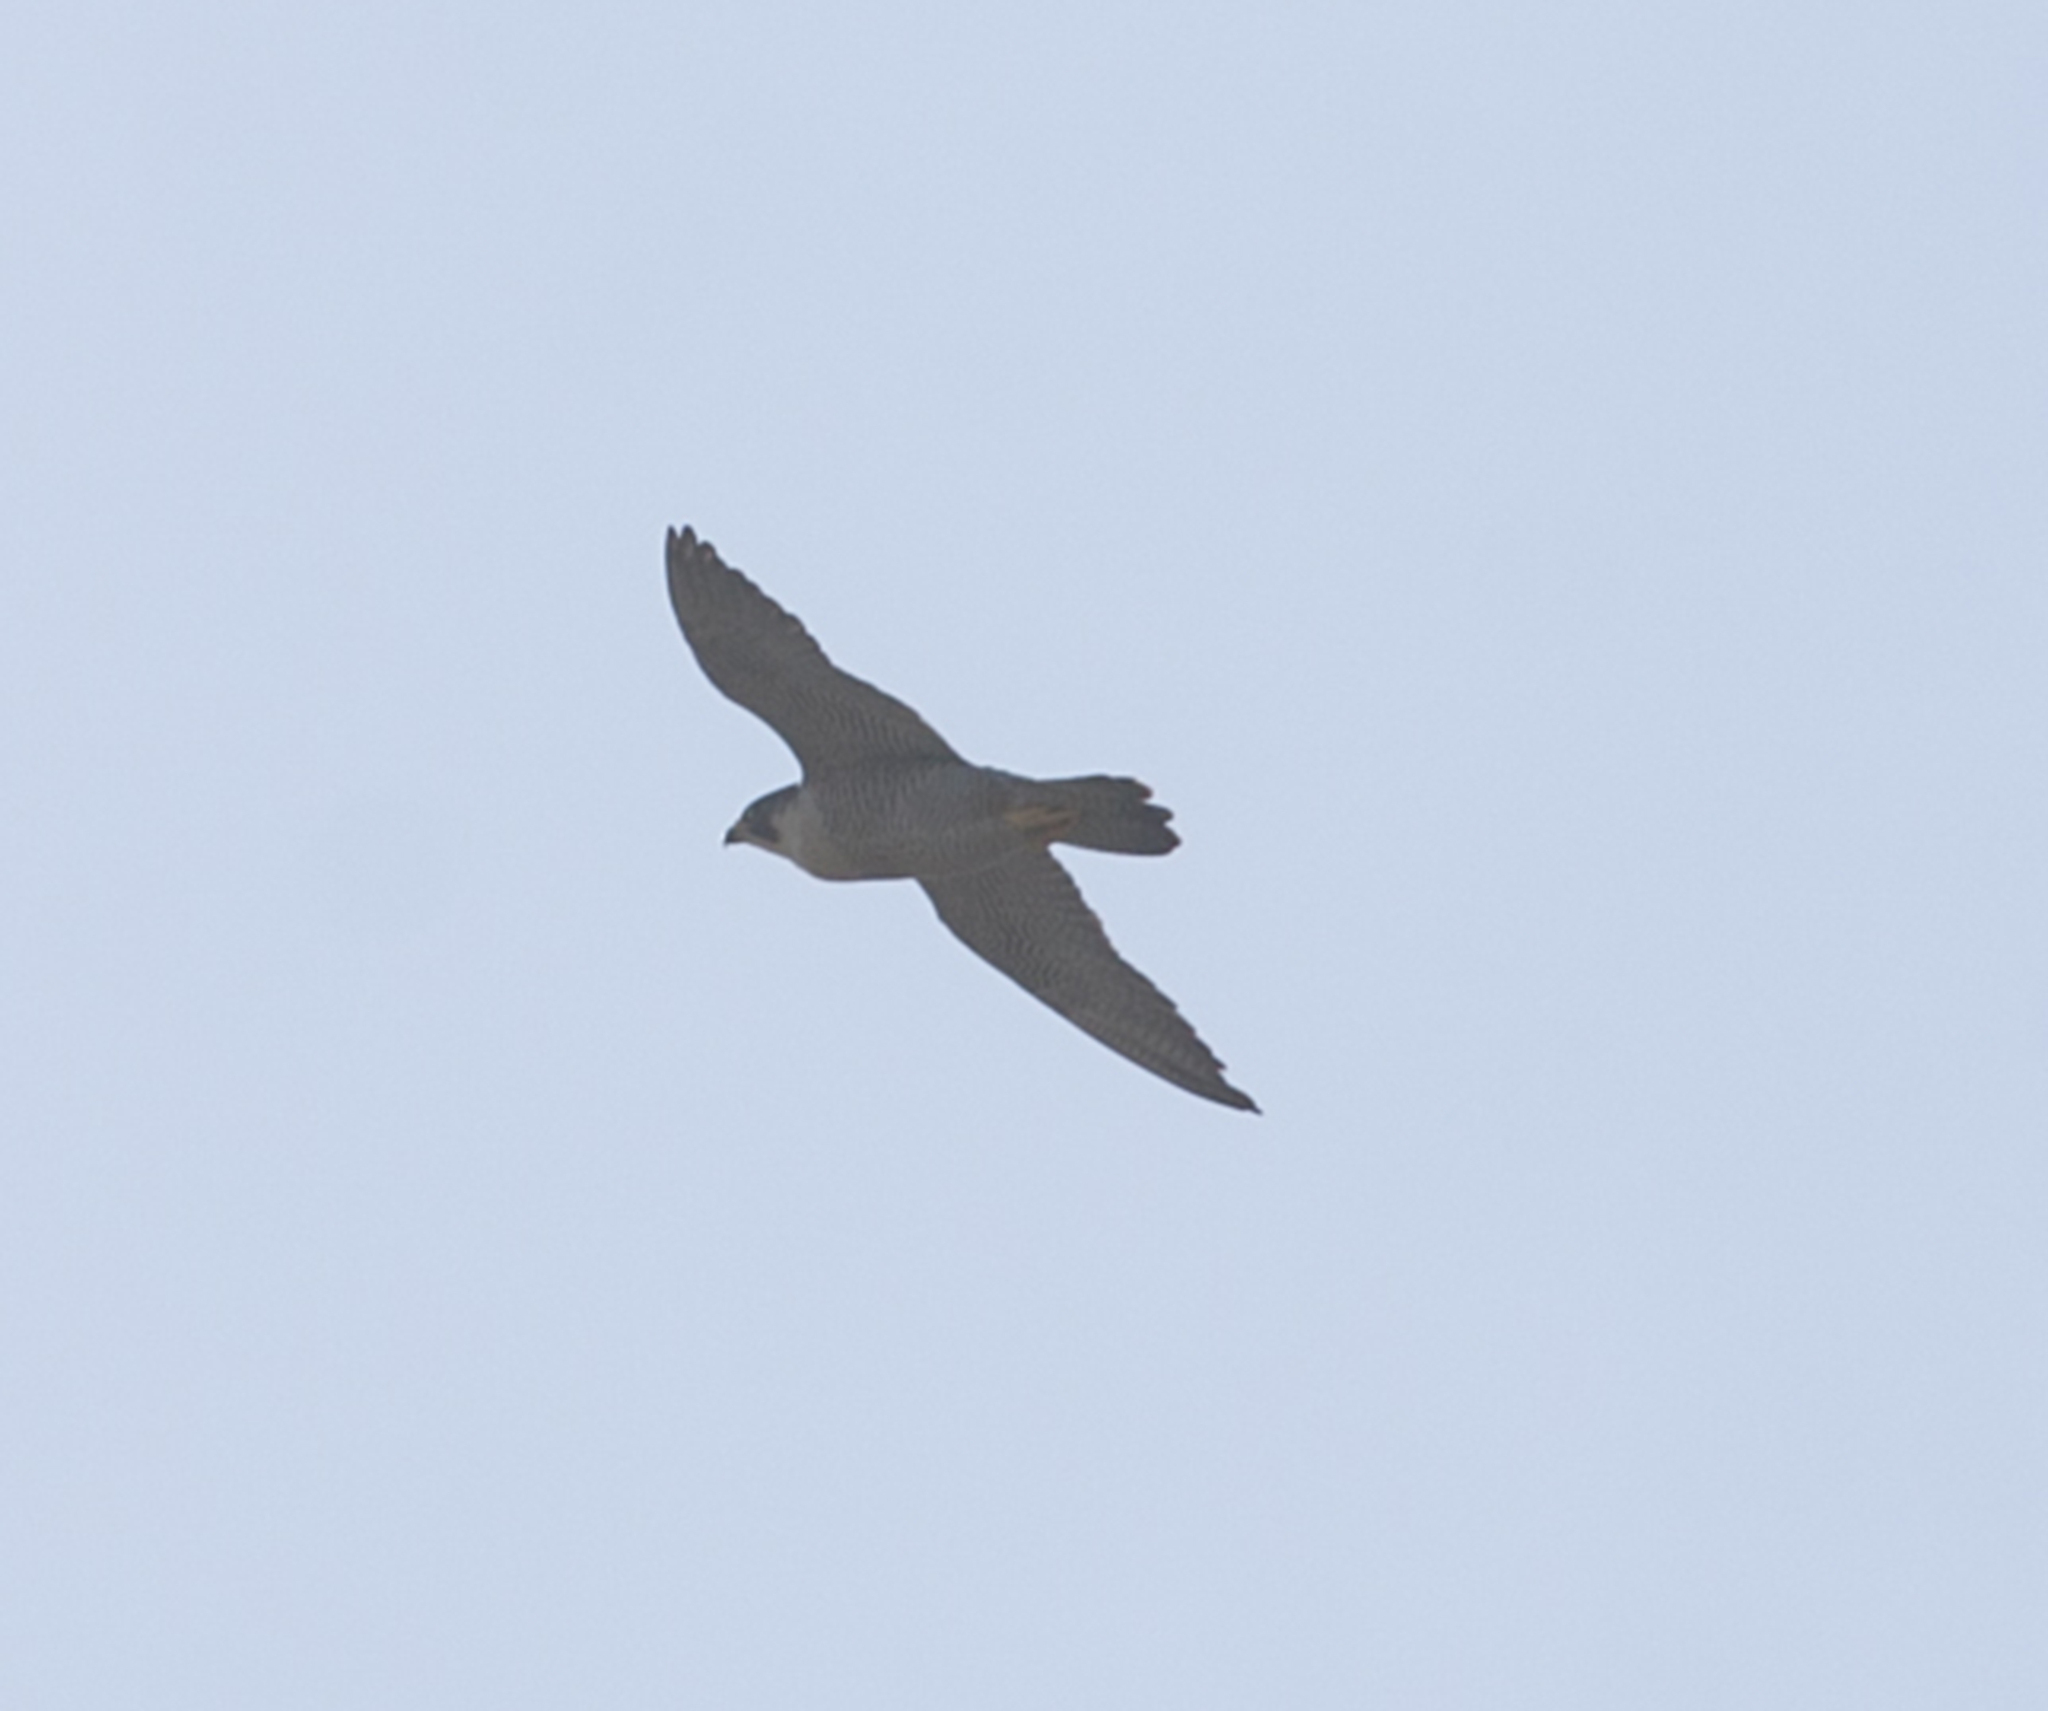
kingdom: Animalia
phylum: Chordata
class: Aves
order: Falconiformes
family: Falconidae
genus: Falco
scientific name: Falco peregrinus
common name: Peregrine falcon
